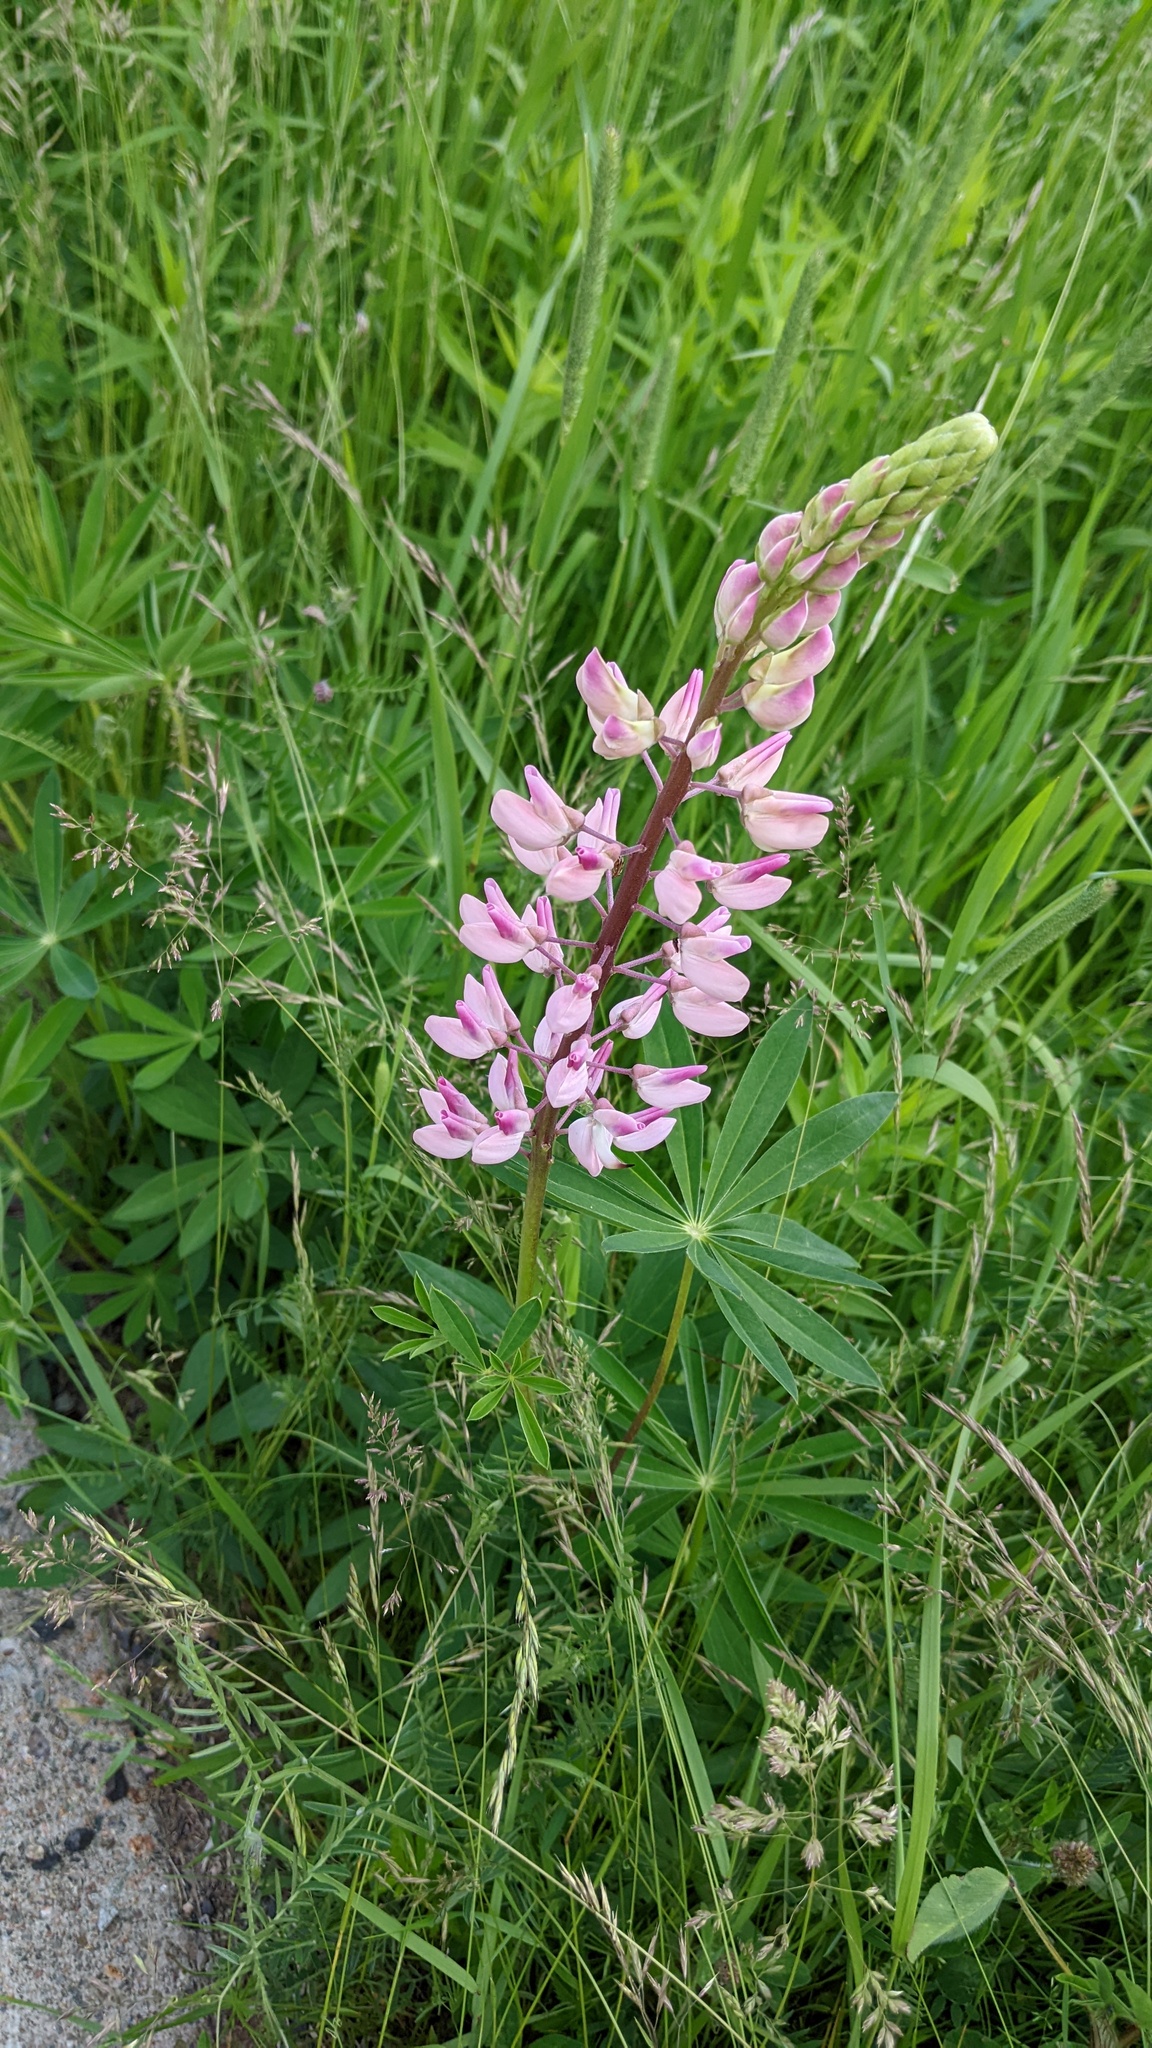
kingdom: Plantae
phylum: Tracheophyta
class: Magnoliopsida
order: Fabales
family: Fabaceae
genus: Lupinus
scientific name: Lupinus polyphyllus
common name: Garden lupin
